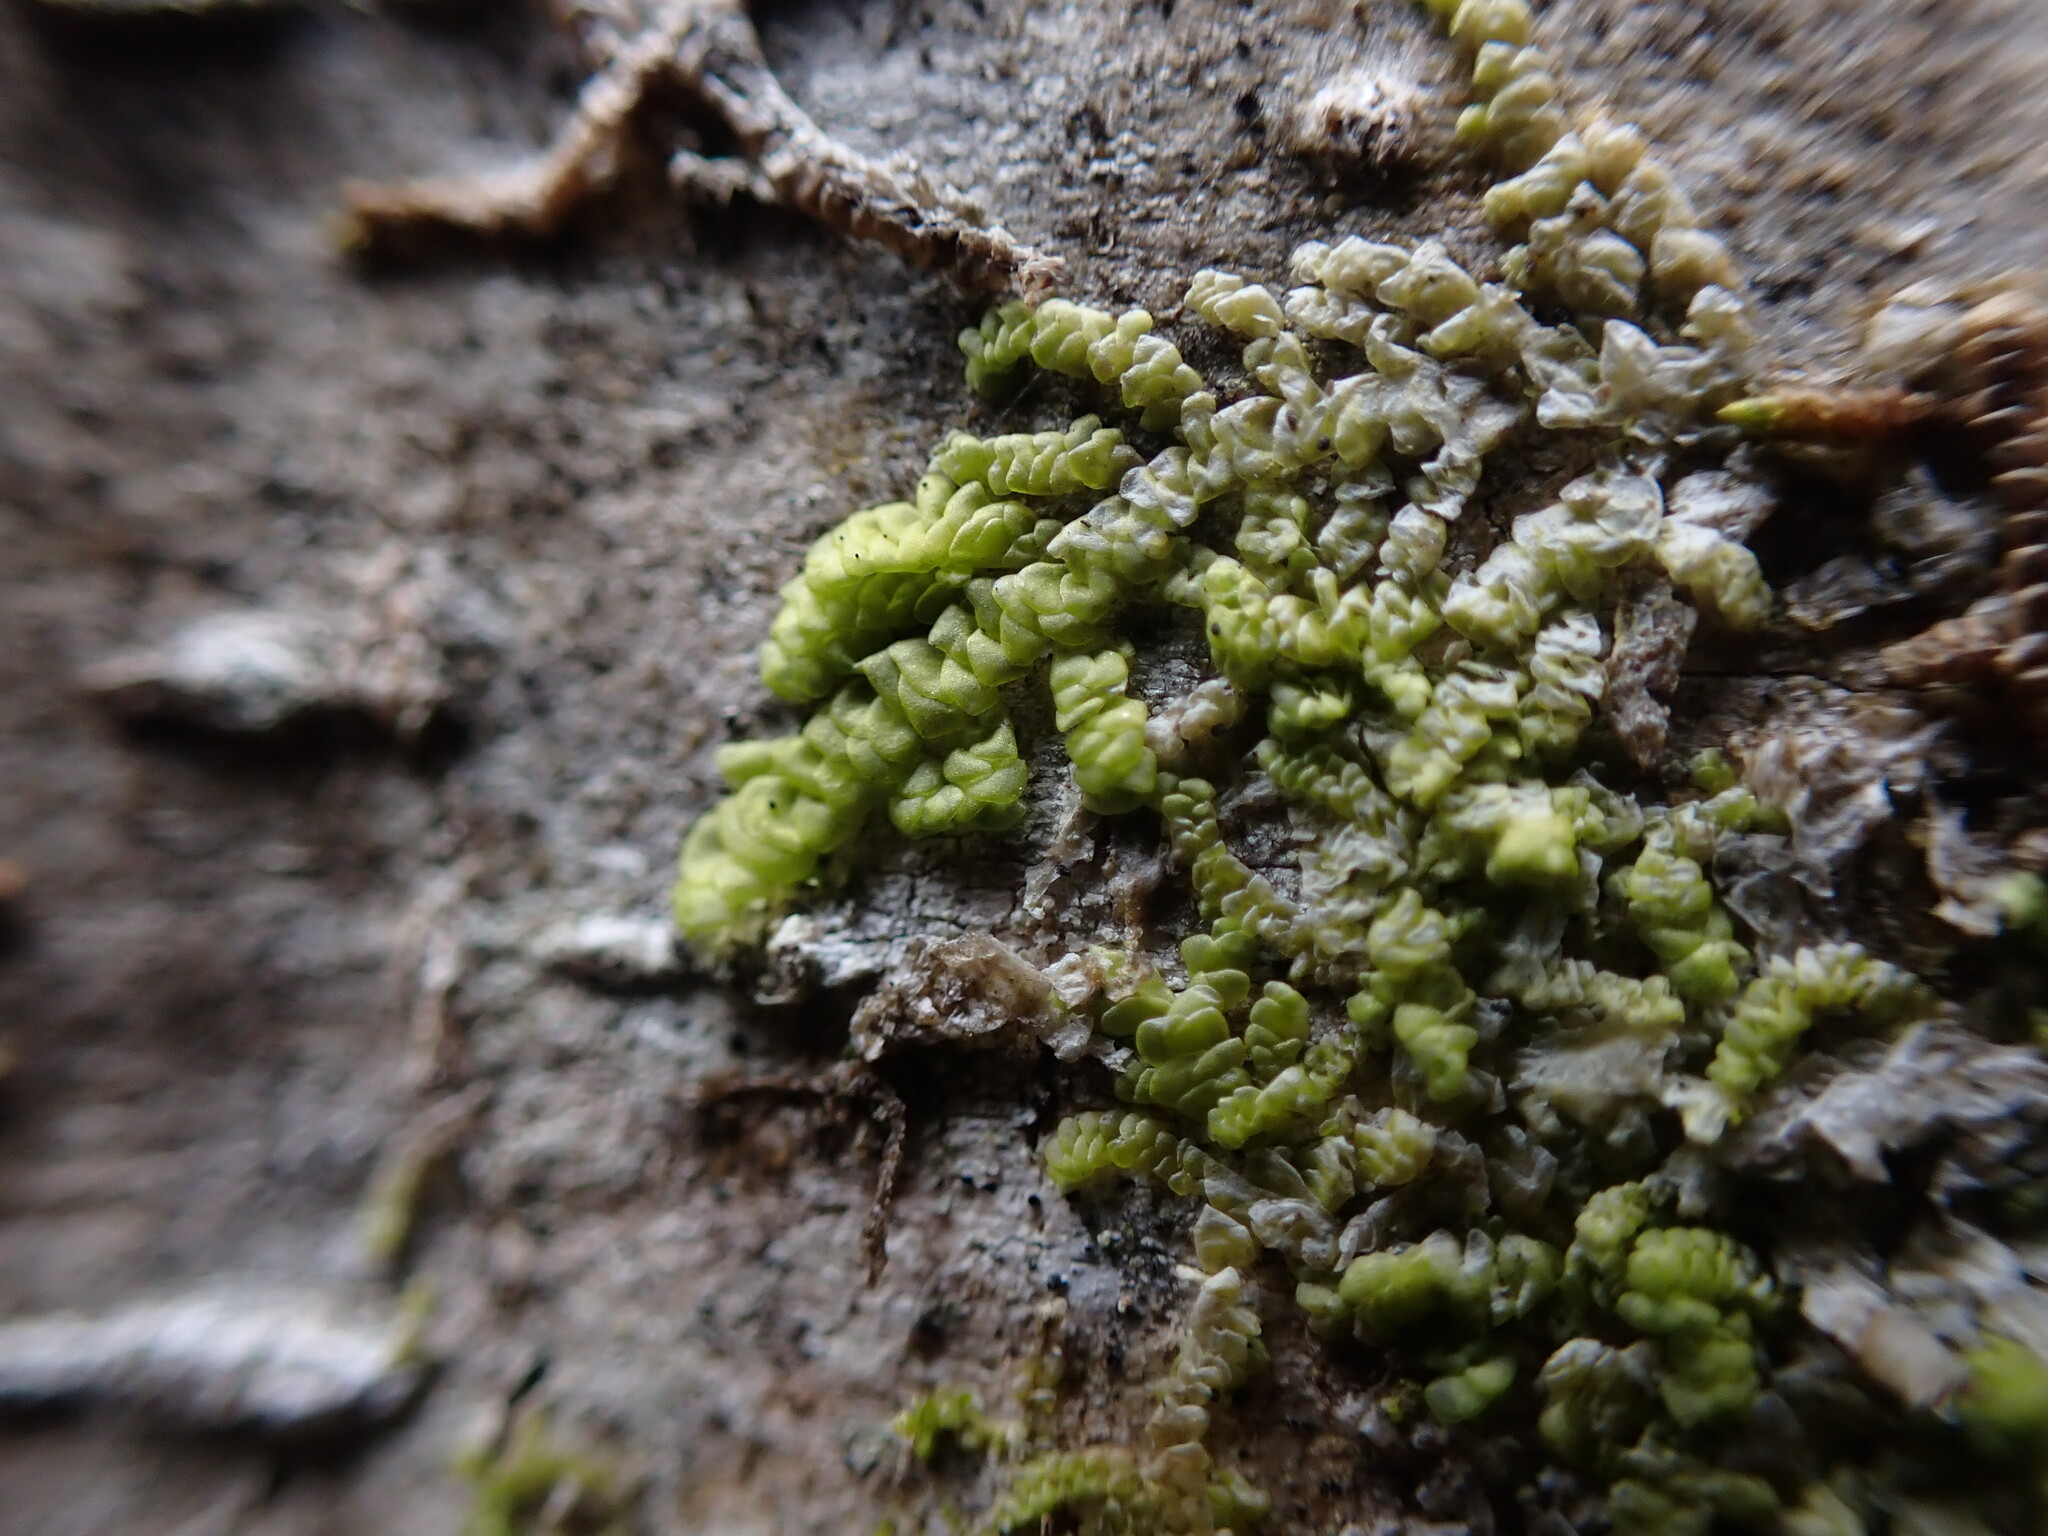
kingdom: Plantae
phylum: Marchantiophyta
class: Jungermanniopsida
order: Porellales
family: Radulaceae
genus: Radula
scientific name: Radula complanata
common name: Flat-leaved scalewort
